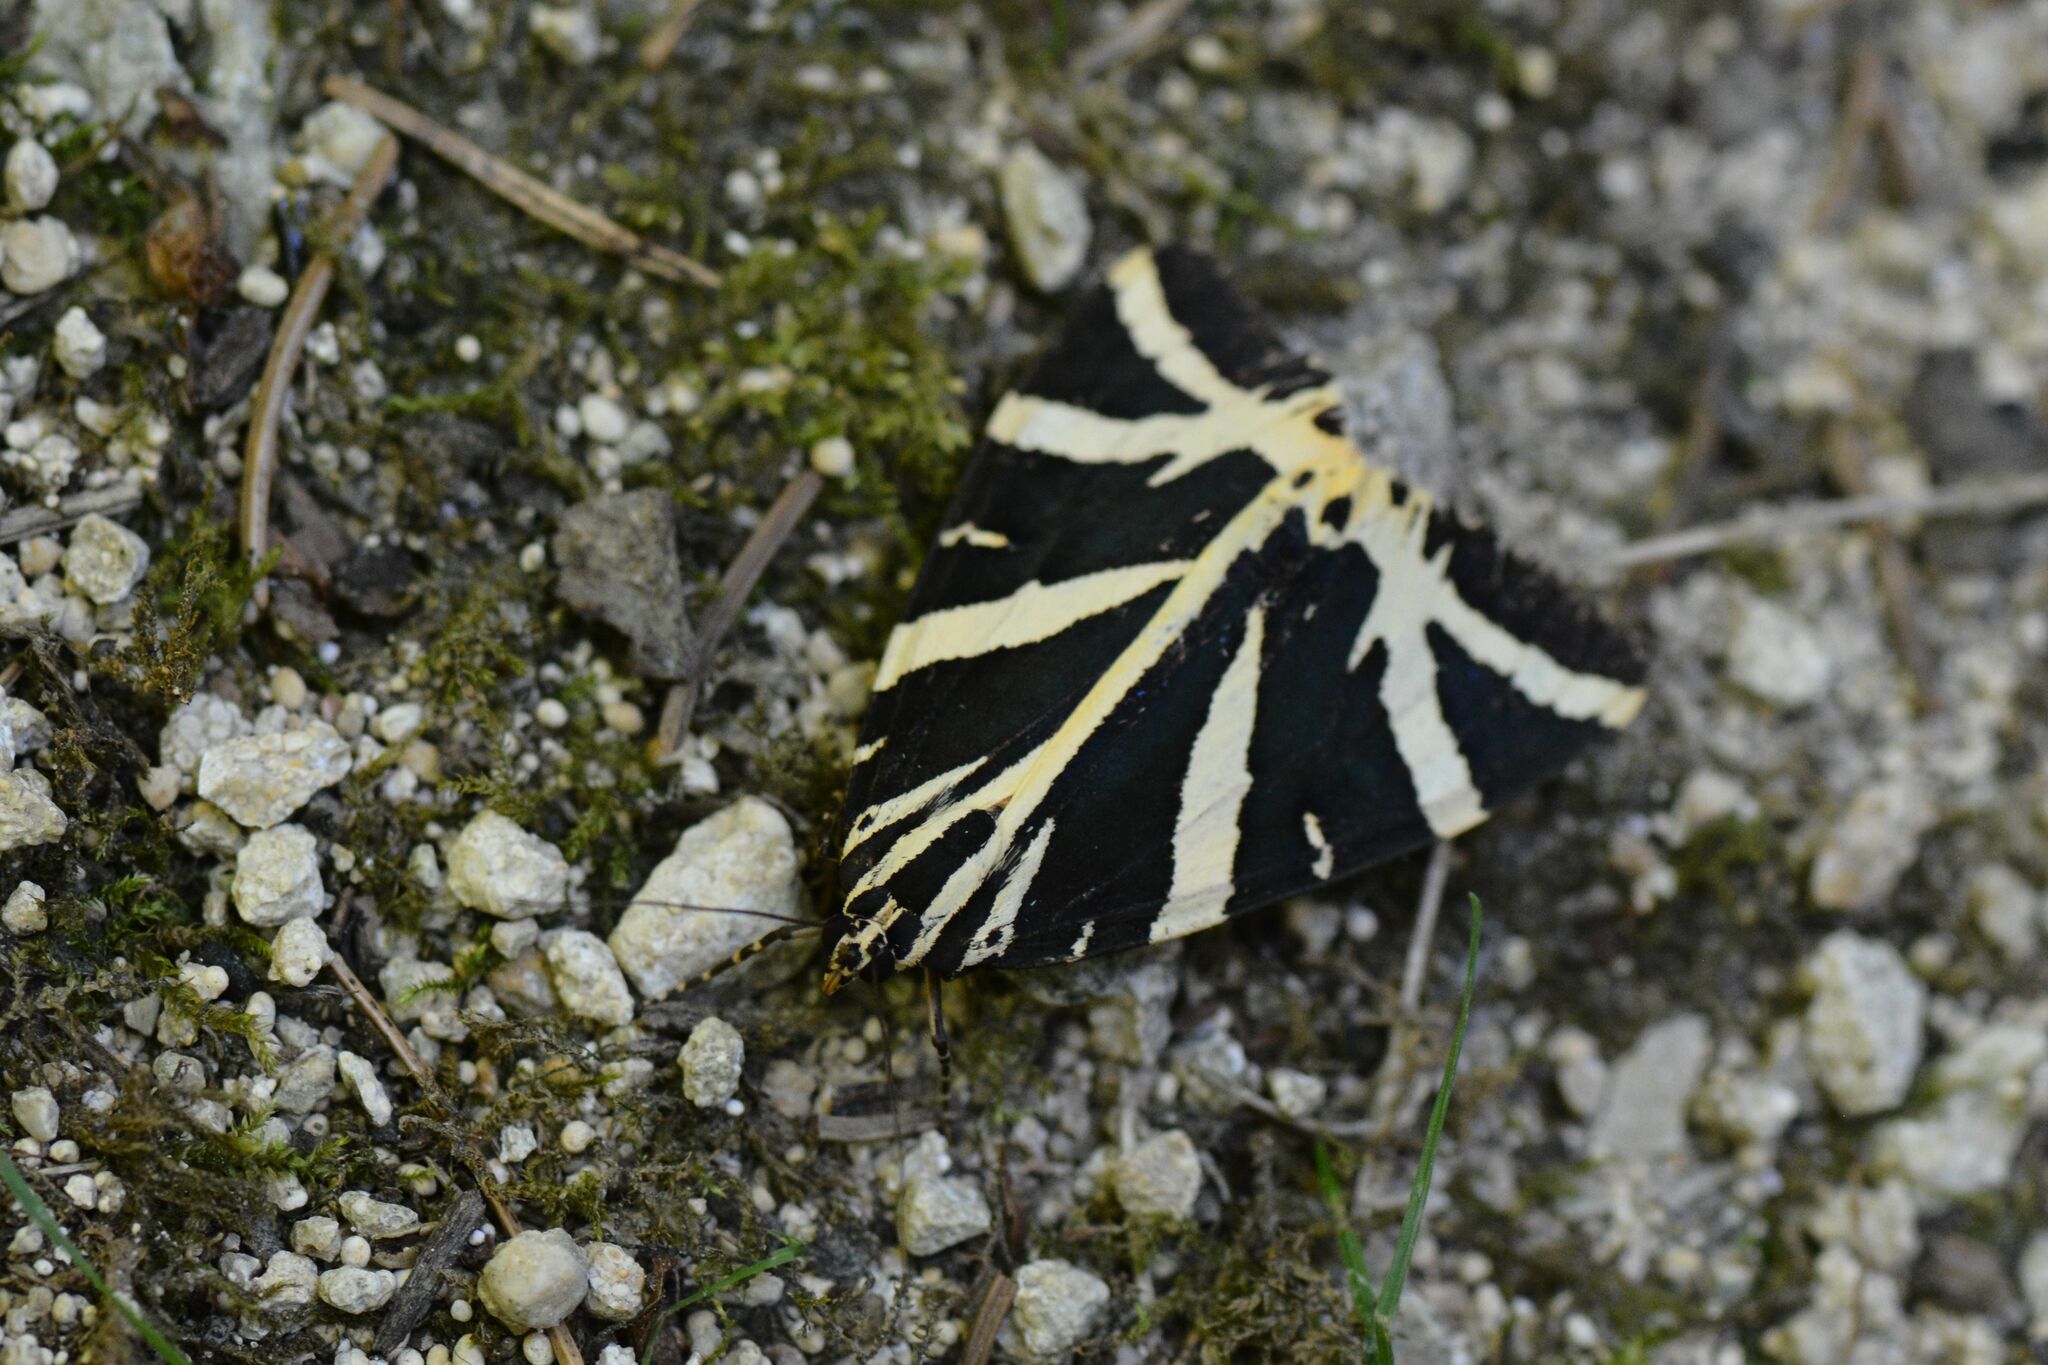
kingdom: Animalia
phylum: Arthropoda
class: Insecta
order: Lepidoptera
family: Erebidae
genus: Euplagia
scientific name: Euplagia quadripunctaria
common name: Jersey tiger
